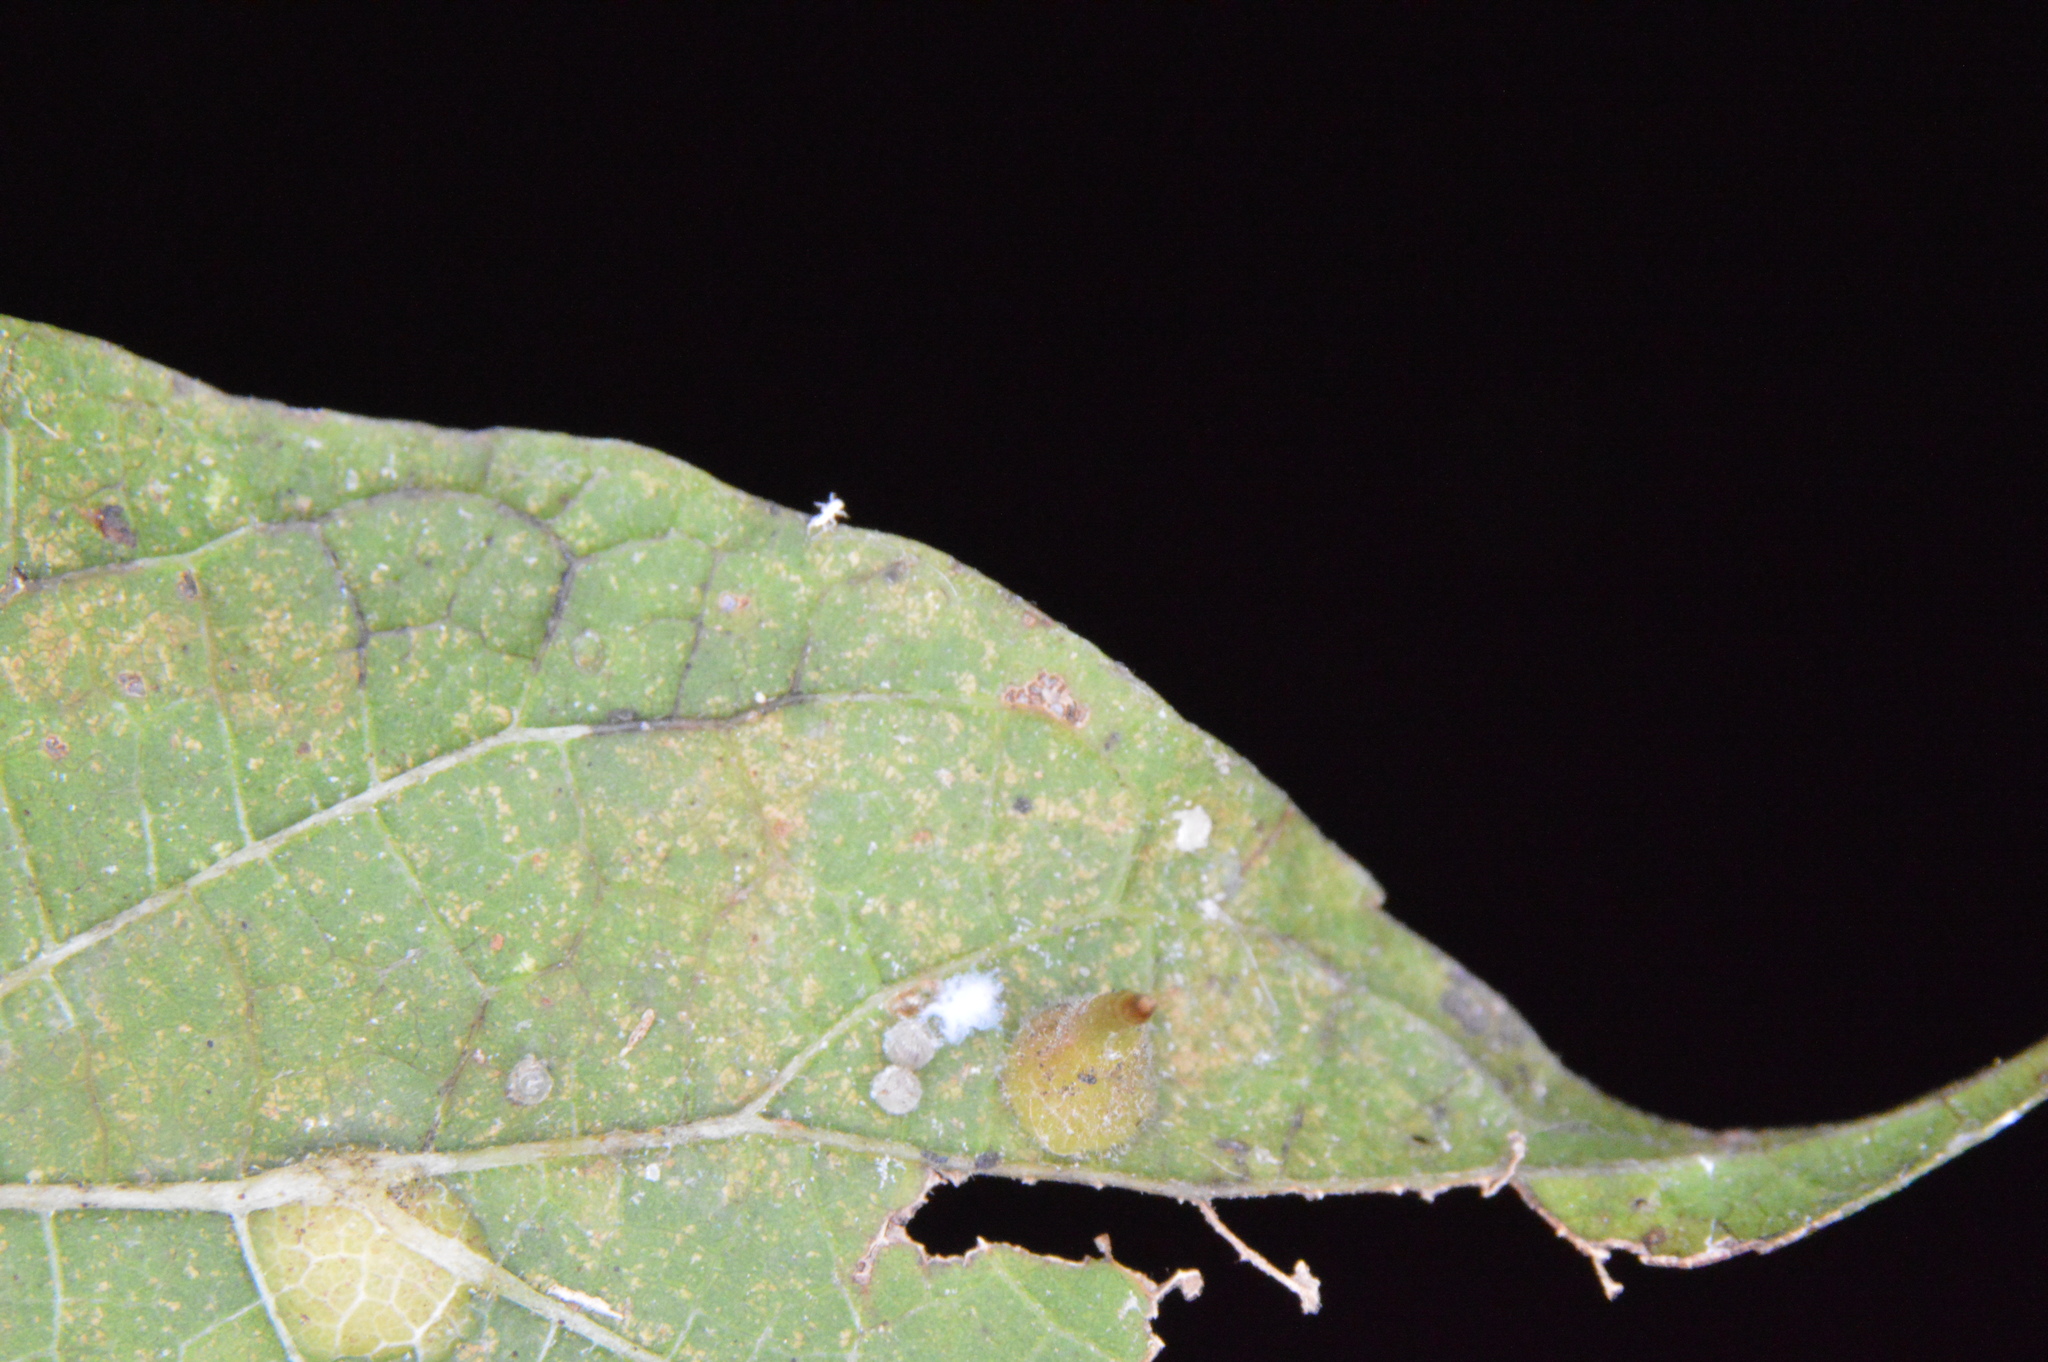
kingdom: Animalia
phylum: Arthropoda
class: Insecta
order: Diptera
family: Cecidomyiidae
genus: Celticecis
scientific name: Celticecis subulata
